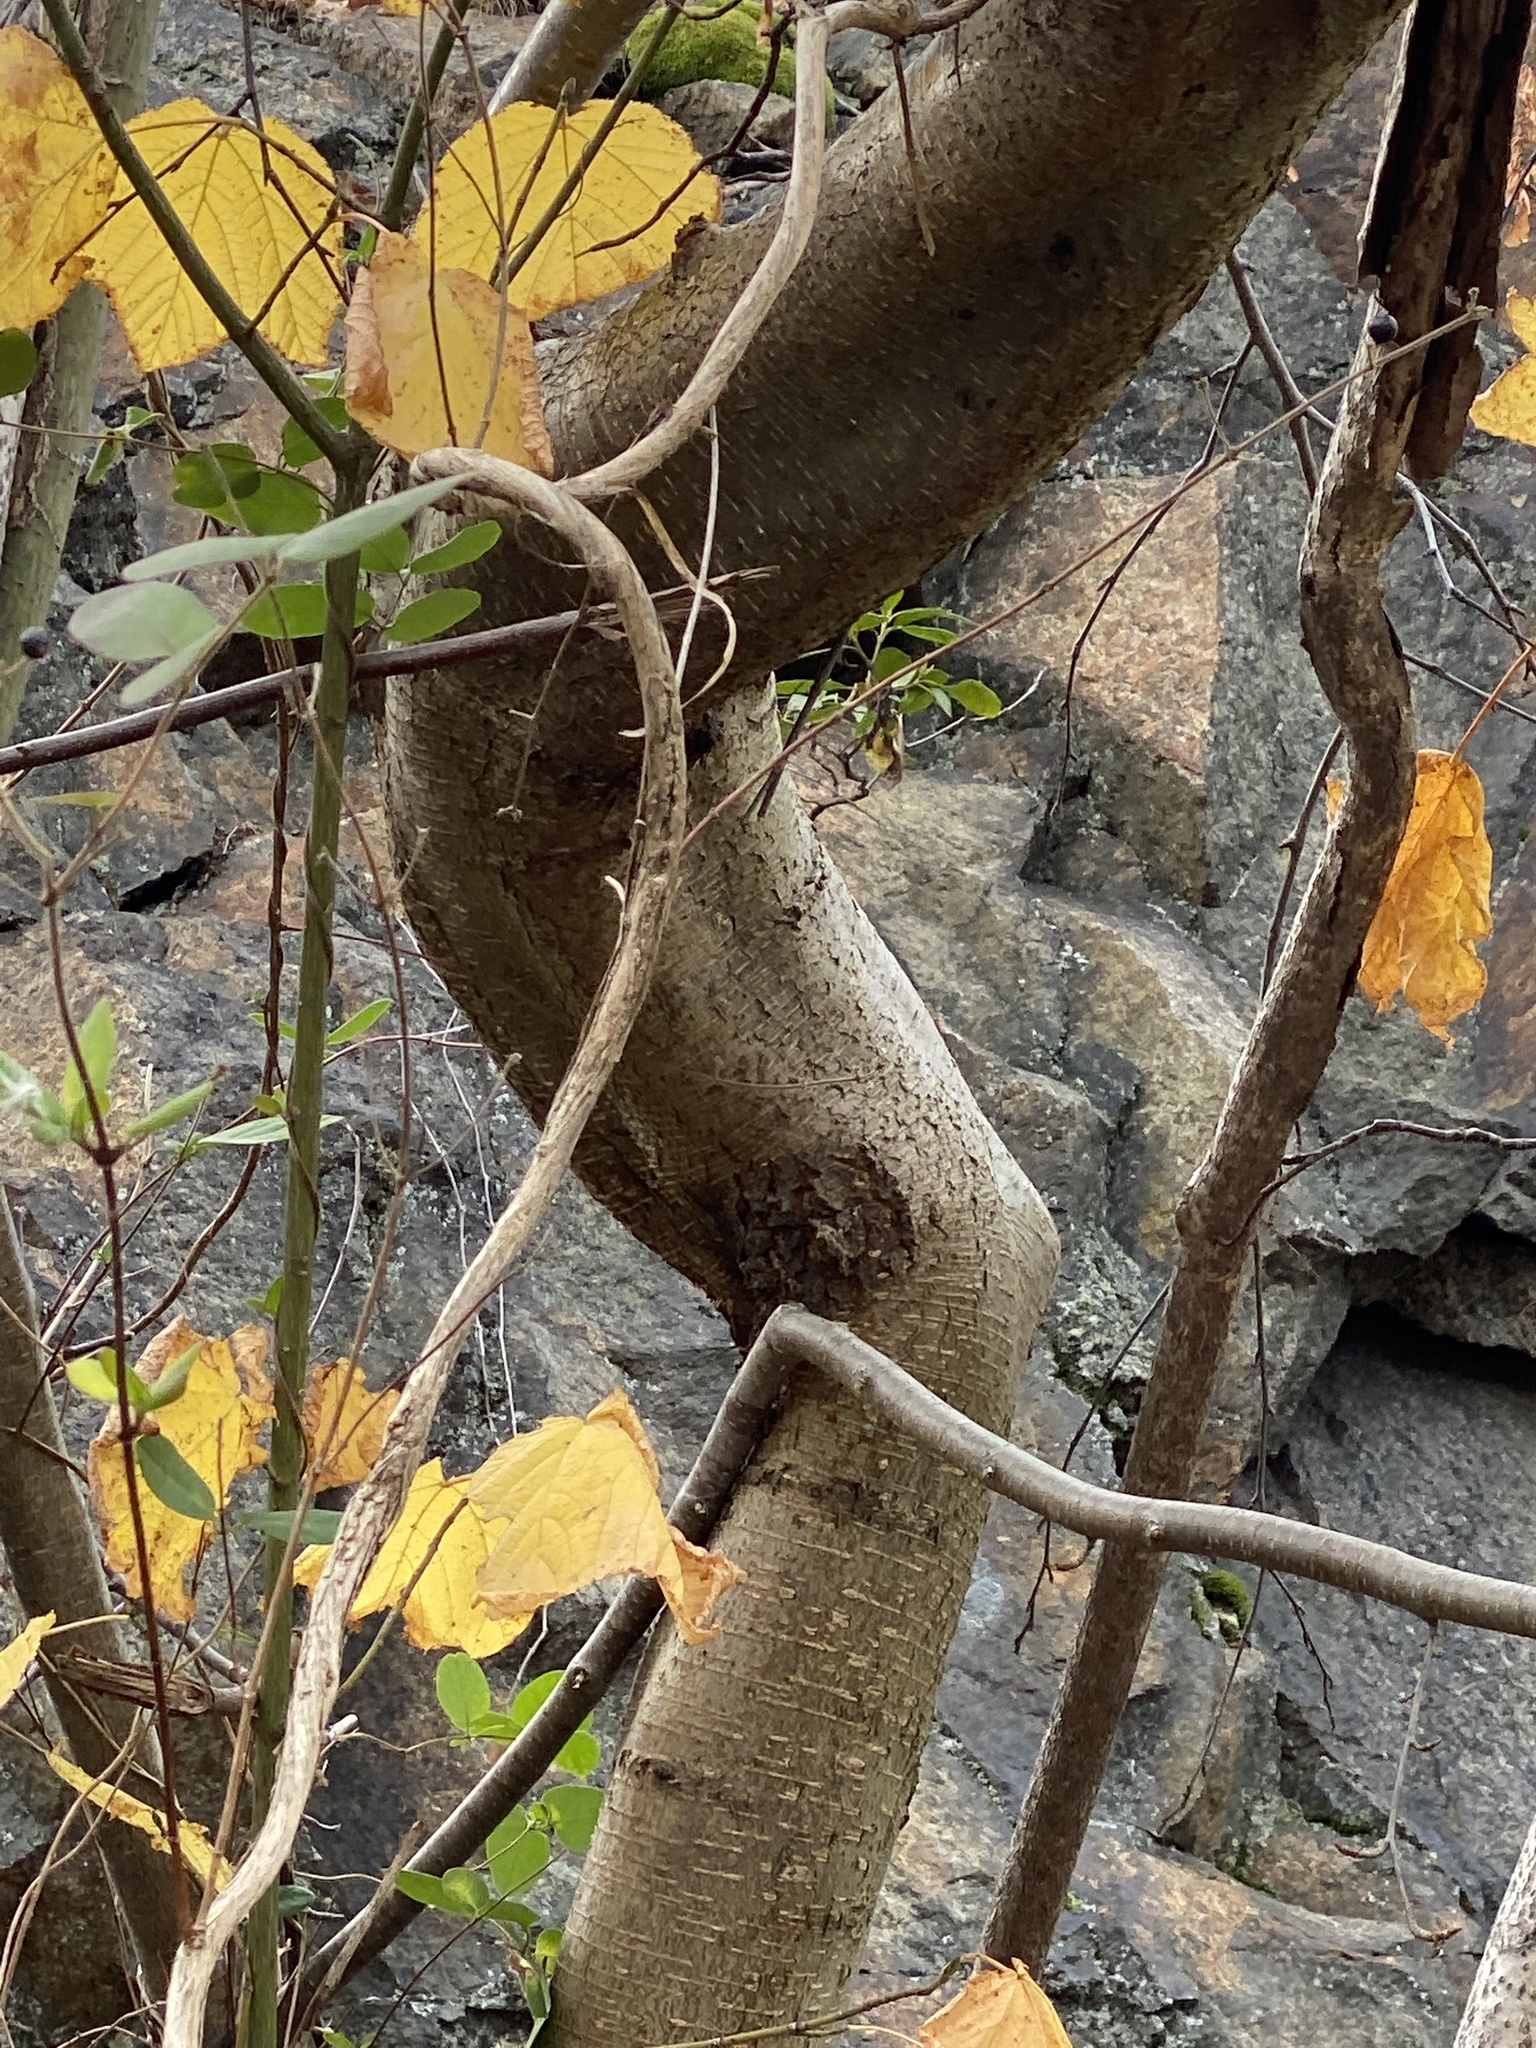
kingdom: Plantae
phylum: Tracheophyta
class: Magnoliopsida
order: Fagales
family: Betulaceae
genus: Betula
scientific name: Betula lenta
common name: Black birch
